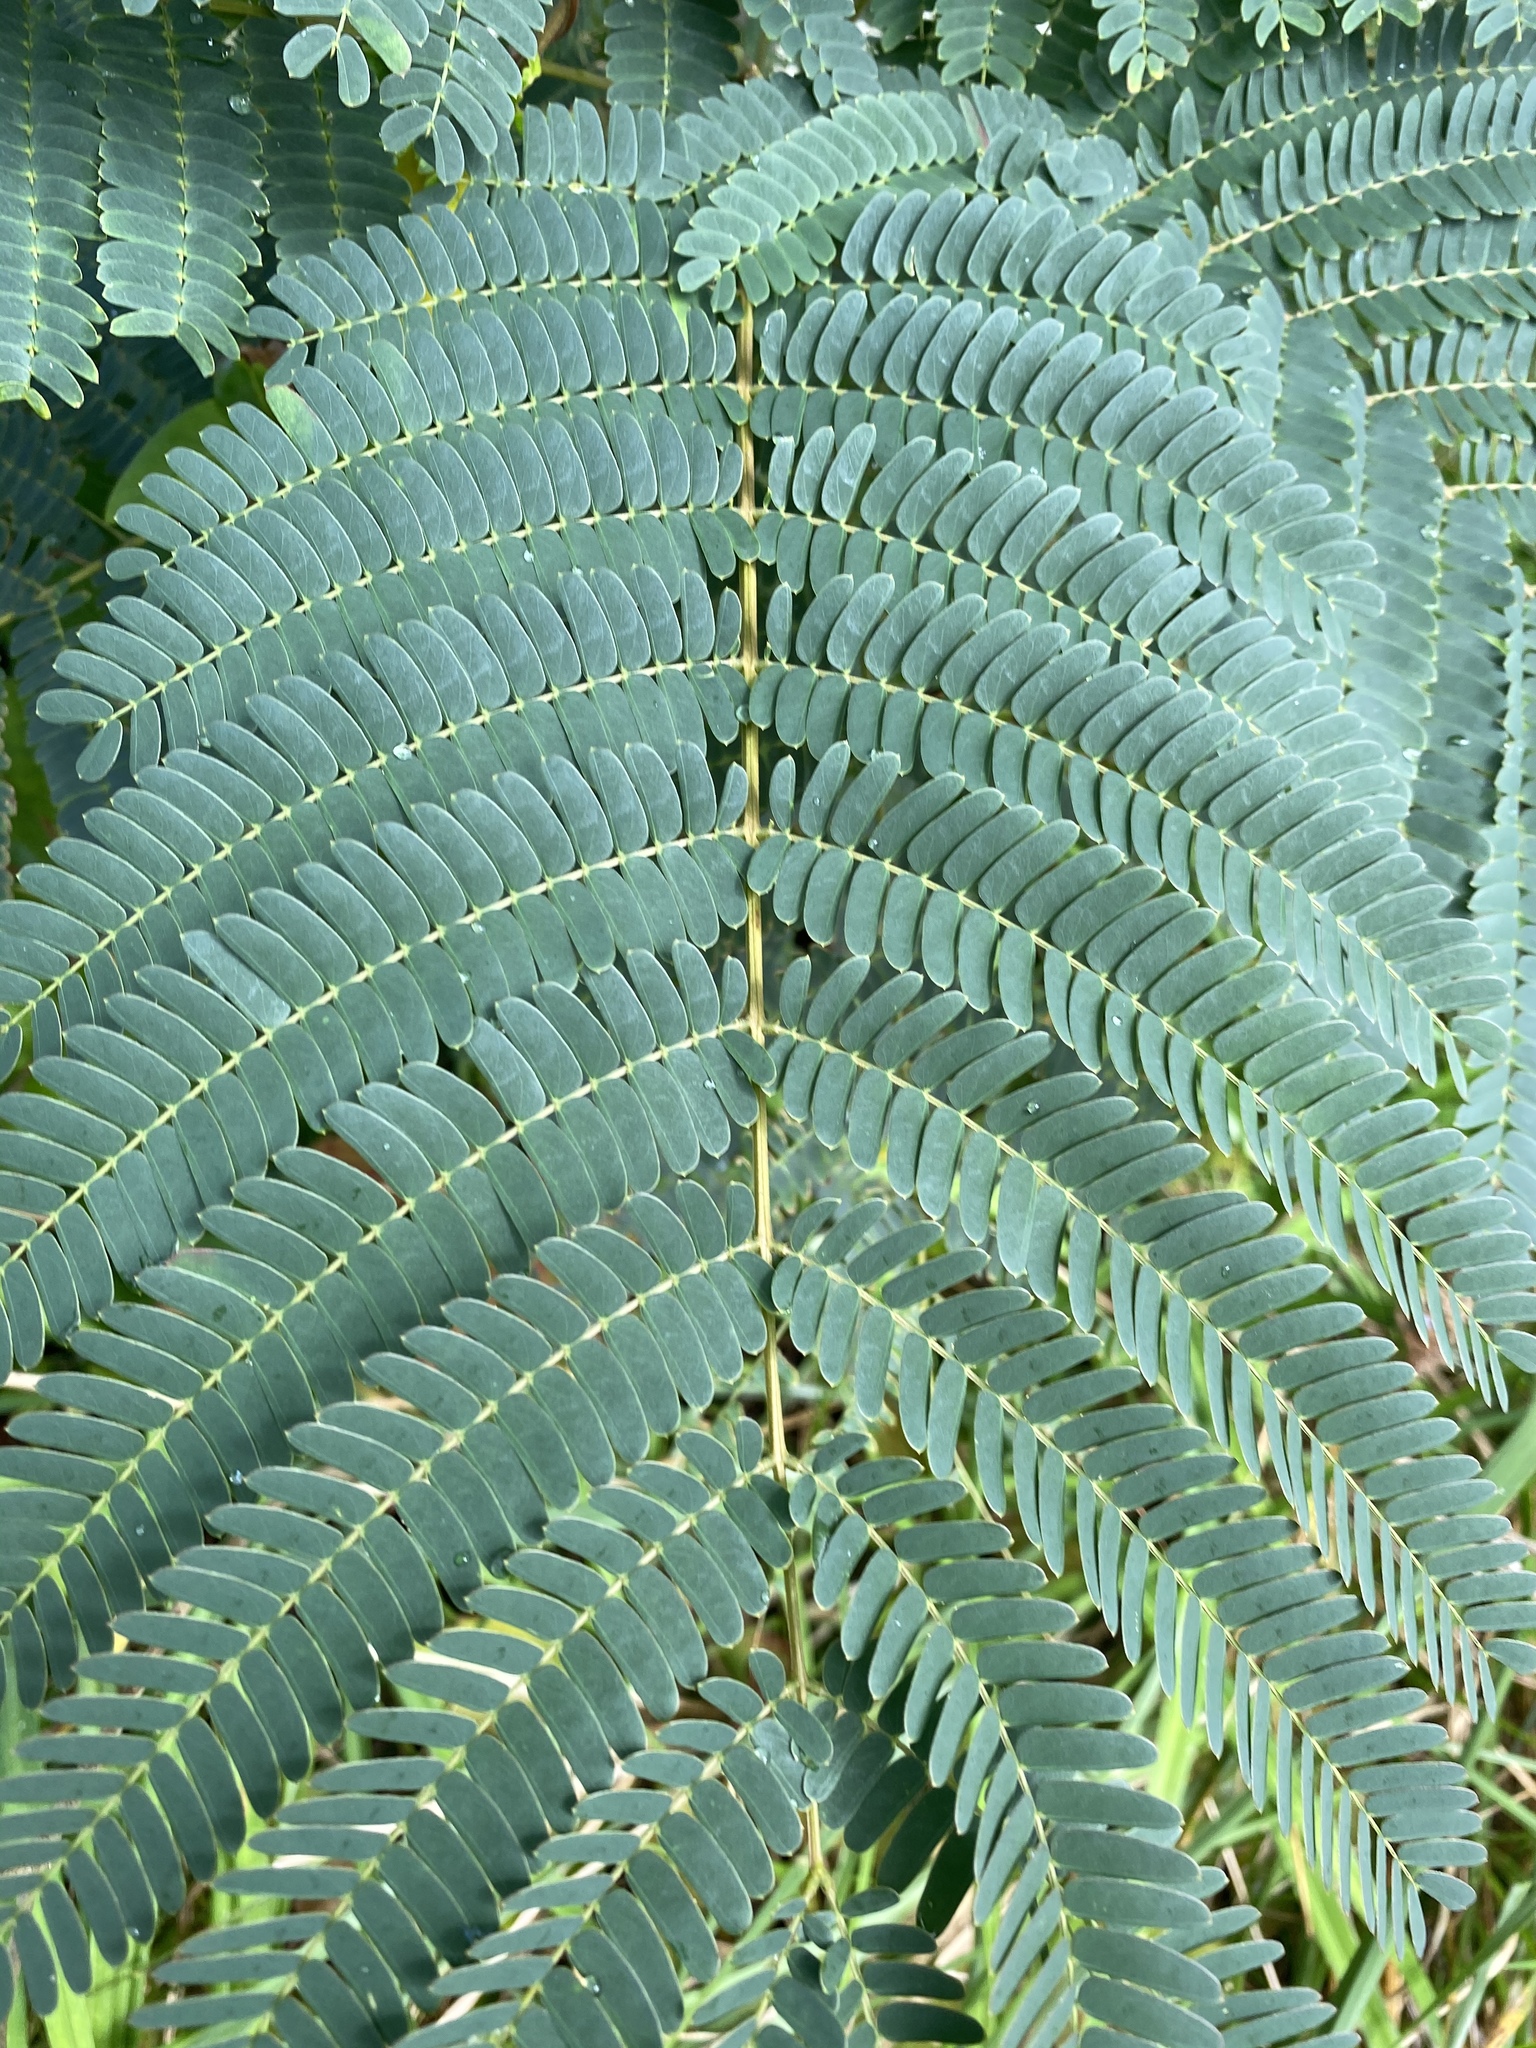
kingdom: Plantae
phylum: Tracheophyta
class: Magnoliopsida
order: Fabales
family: Fabaceae
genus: Albizia
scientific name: Albizia julibrissin
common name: Silktree
